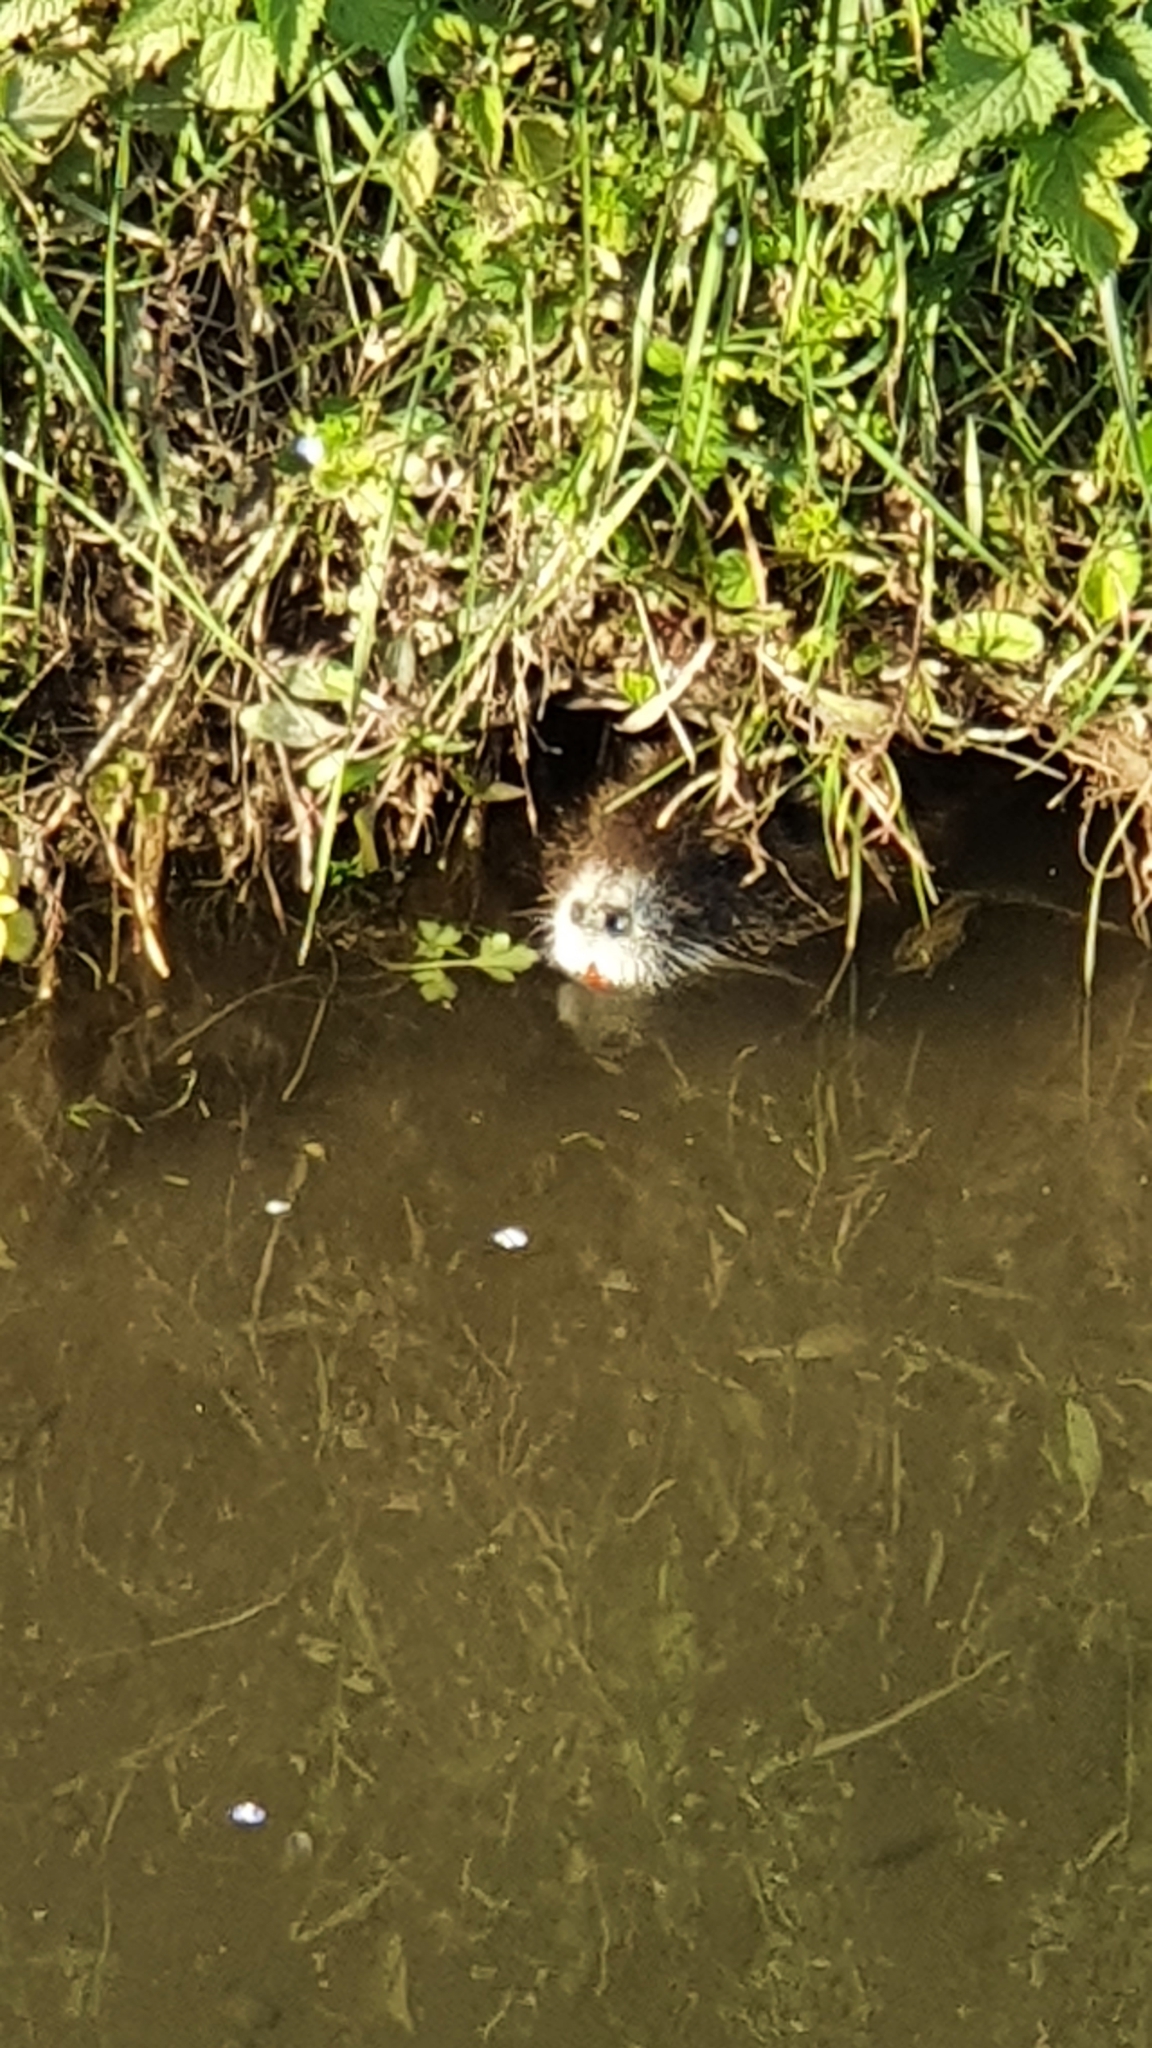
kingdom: Animalia
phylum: Chordata
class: Mammalia
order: Rodentia
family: Myocastoridae
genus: Myocastor
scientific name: Myocastor coypus
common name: Coypu
